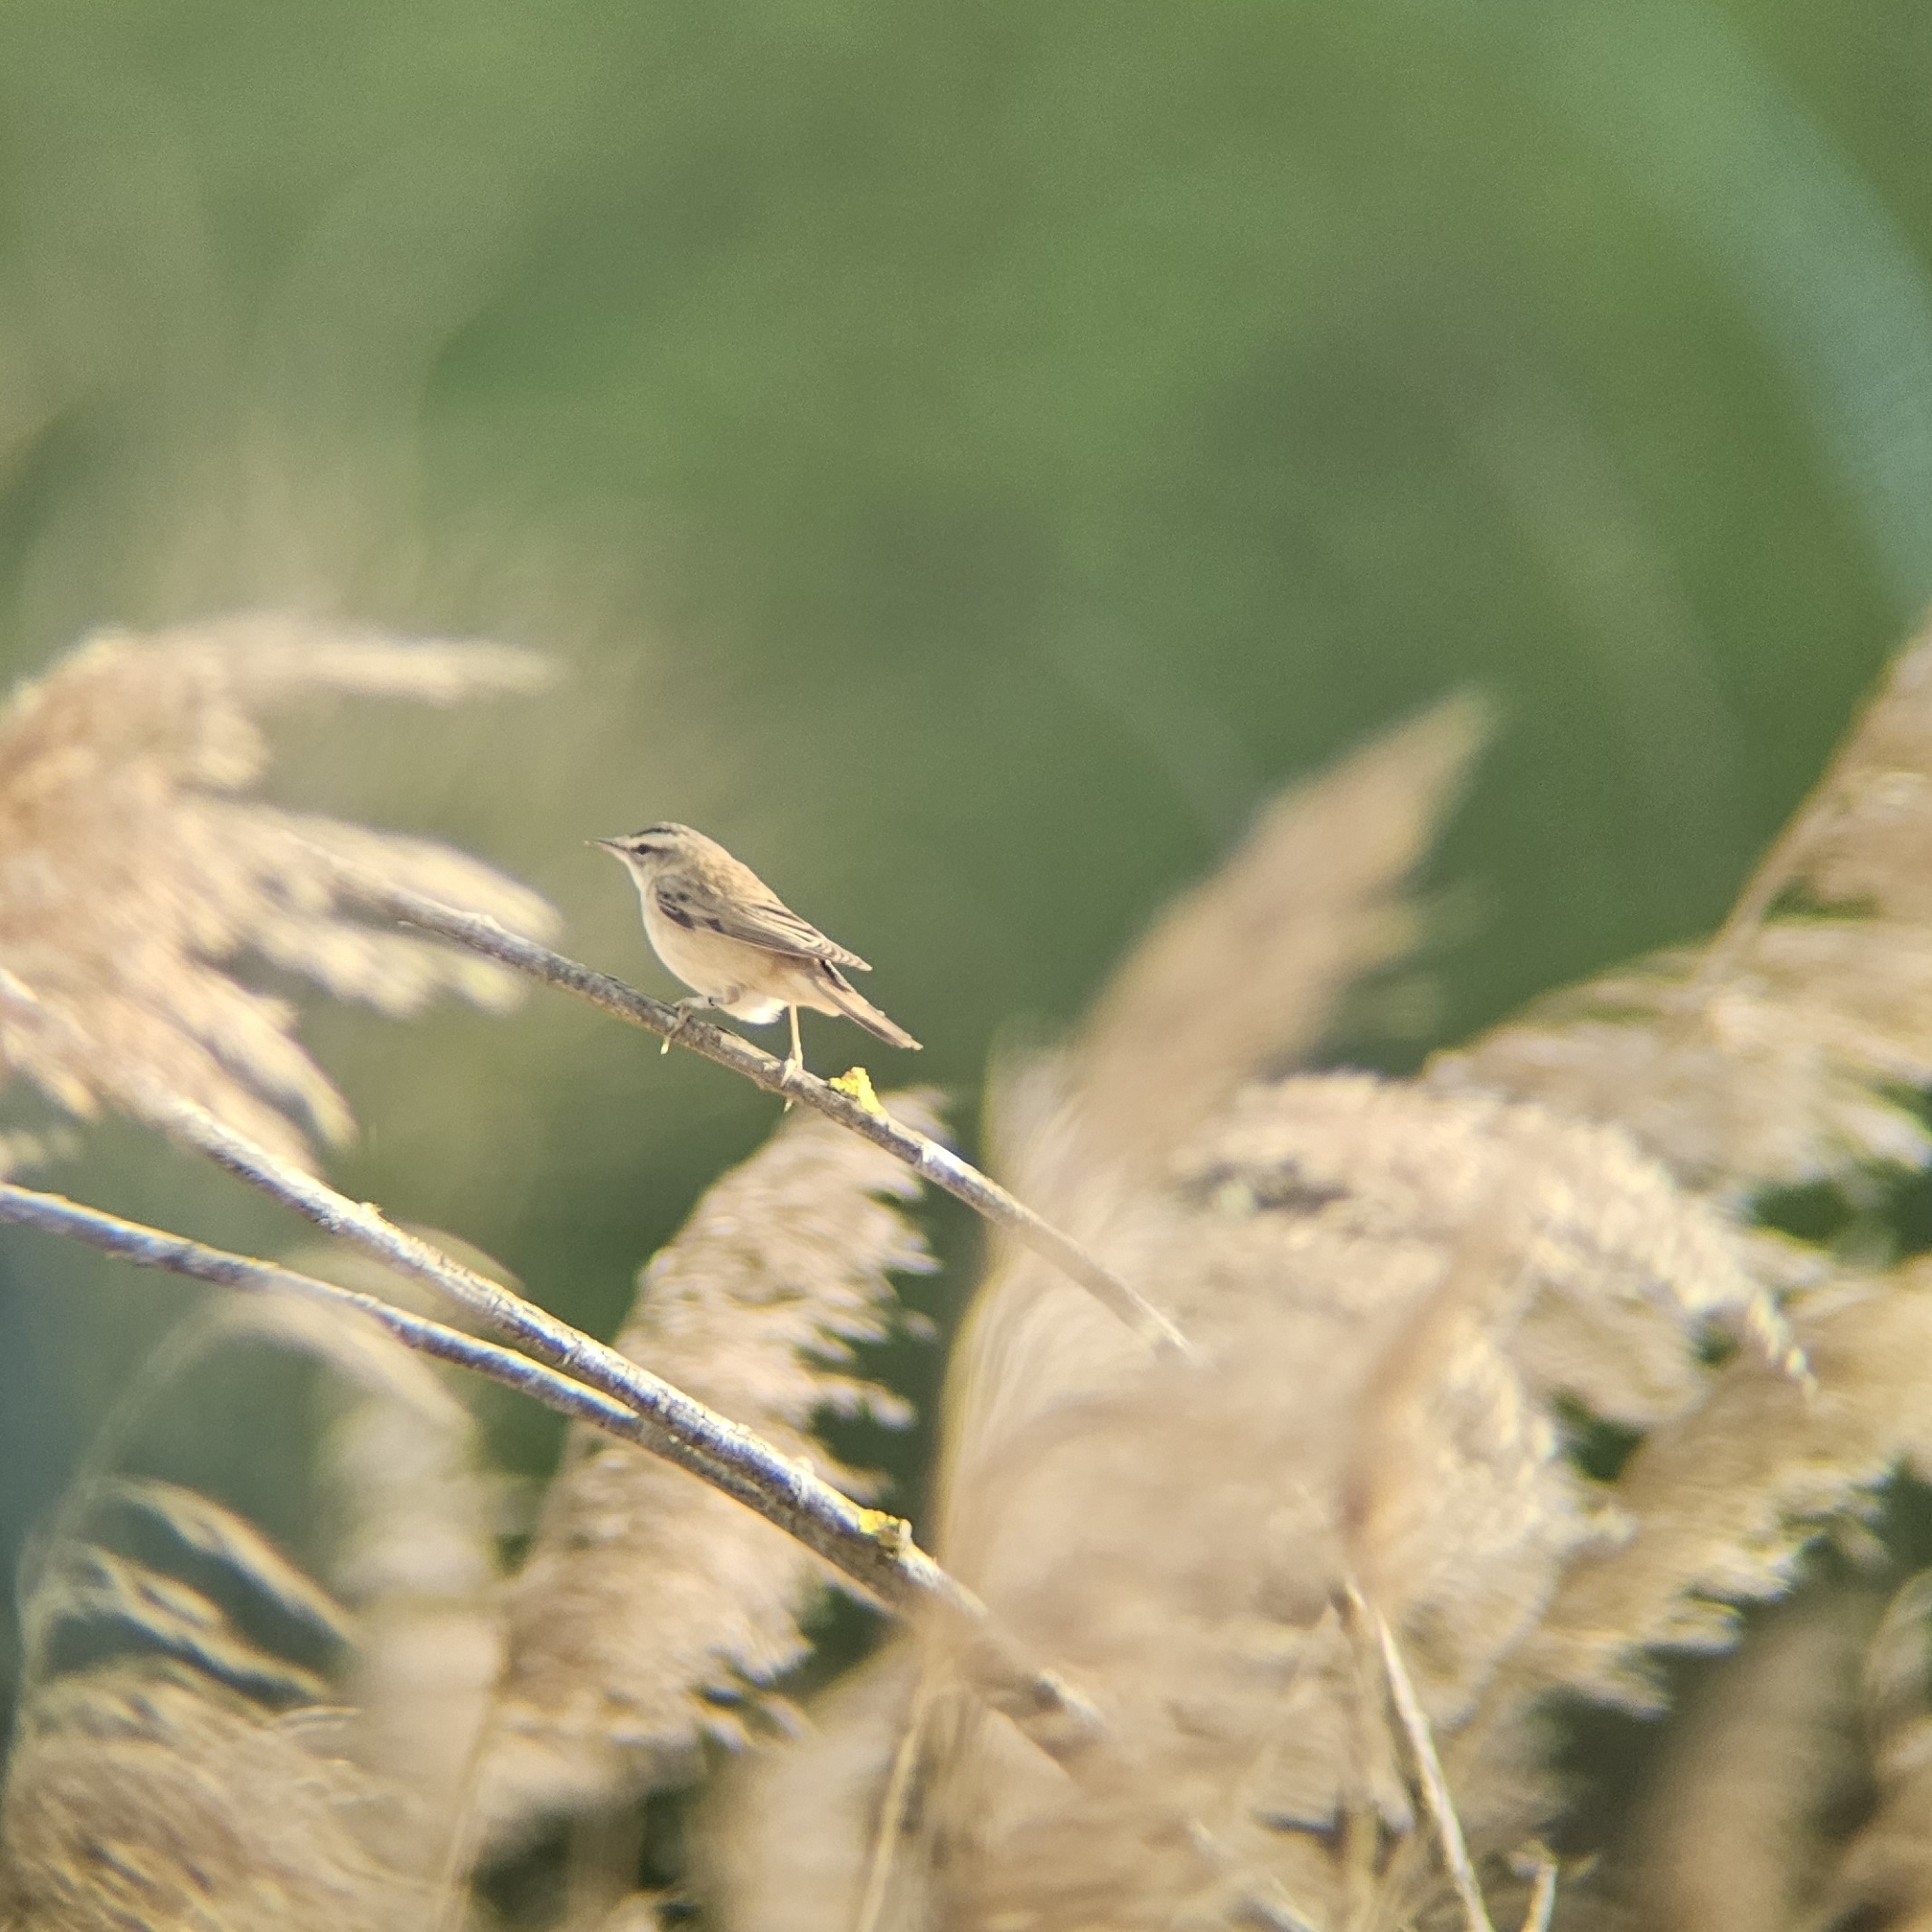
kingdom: Animalia
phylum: Chordata
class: Aves
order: Passeriformes
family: Acrocephalidae
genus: Acrocephalus
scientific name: Acrocephalus schoenobaenus
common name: Sedge warbler
